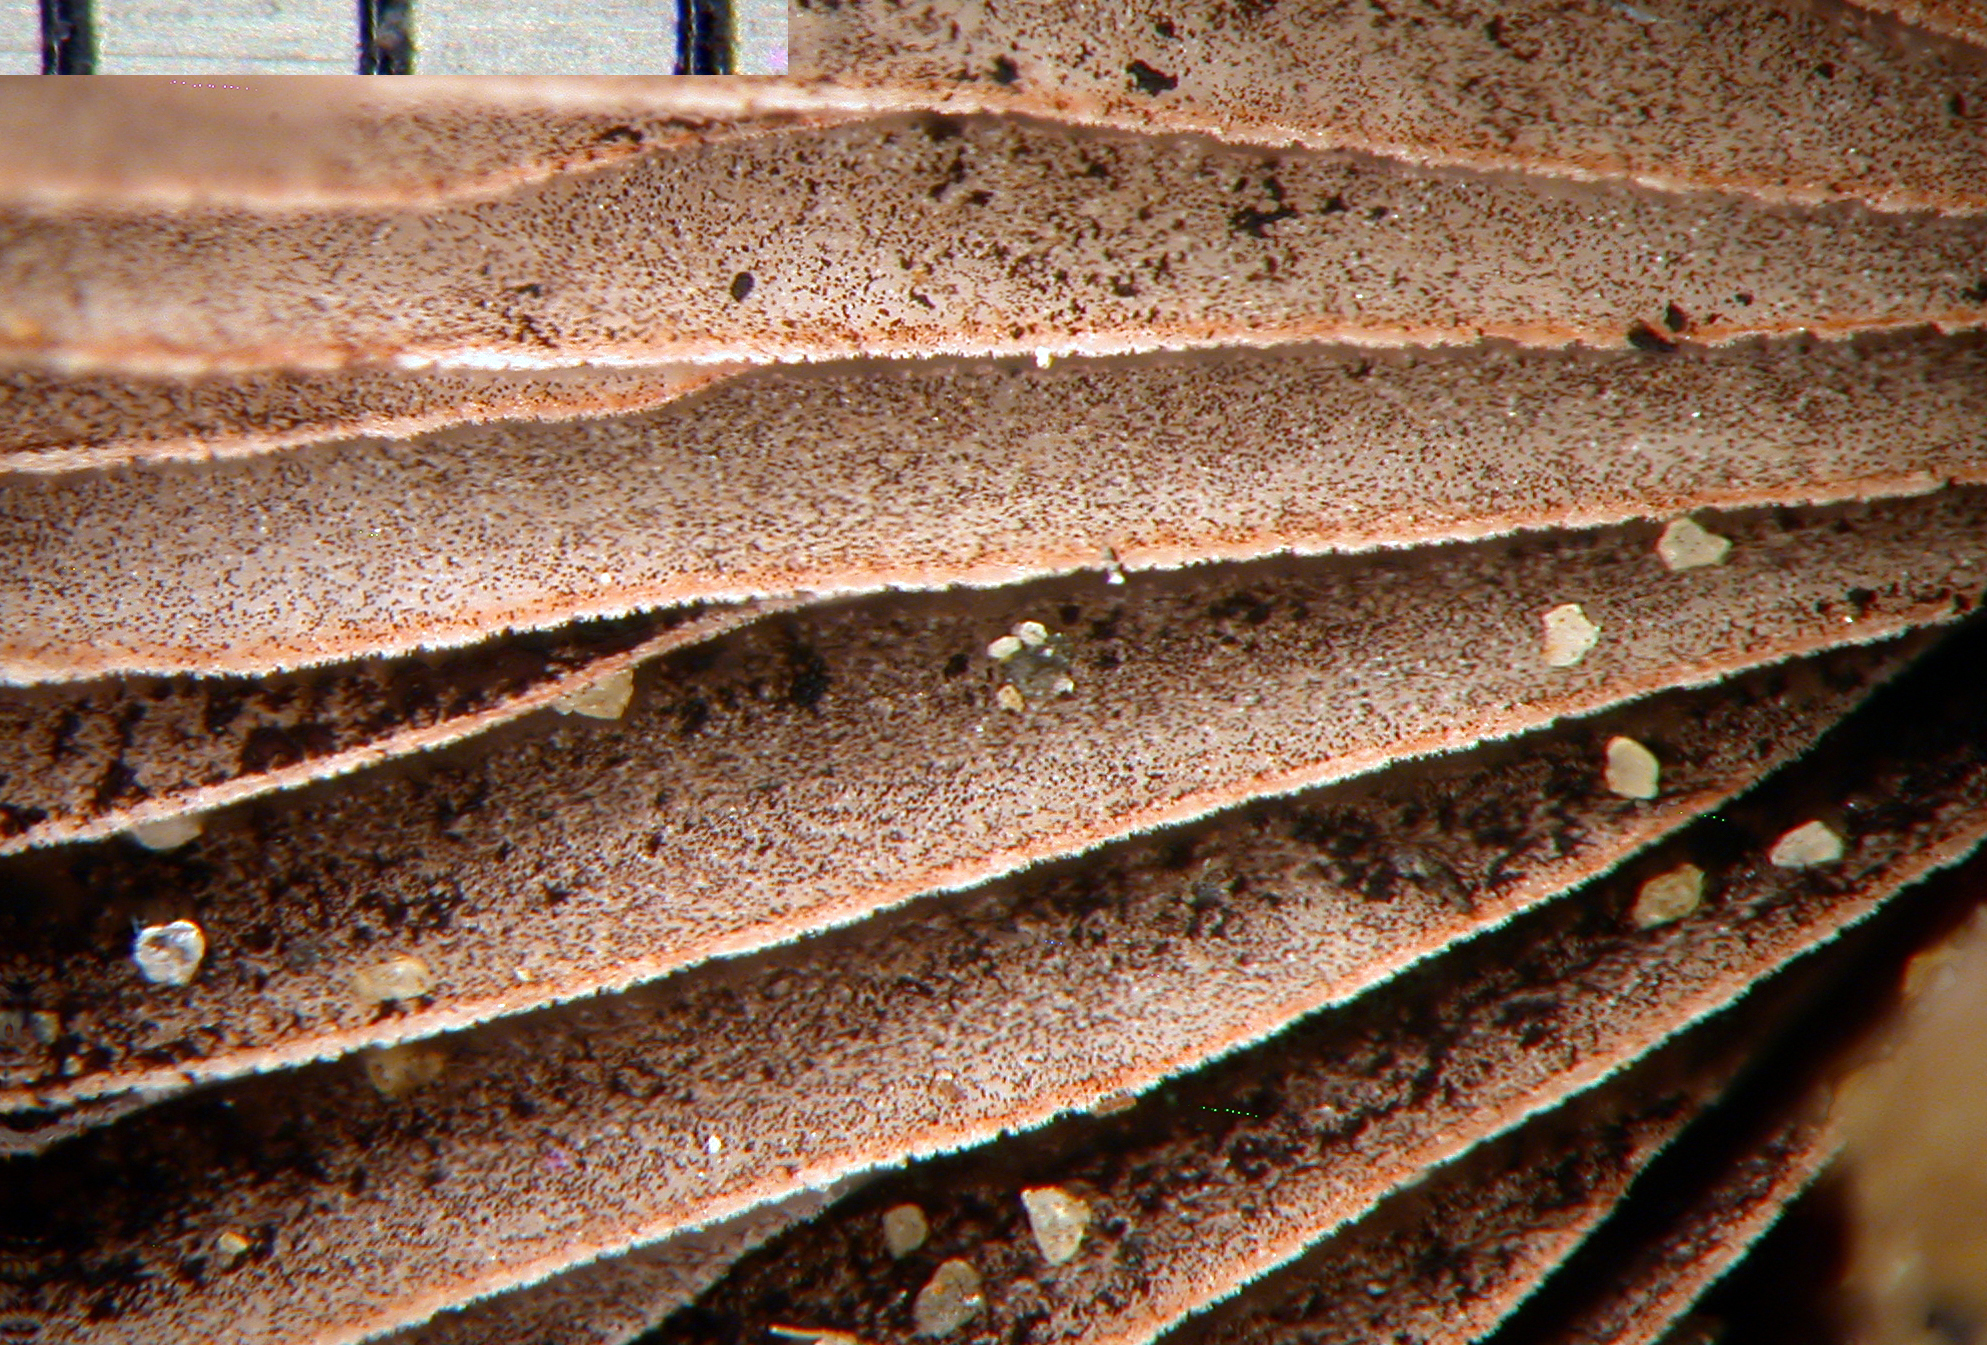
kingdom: Fungi
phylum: Basidiomycota
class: Agaricomycetes
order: Agaricales
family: Psathyrellaceae
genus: Psathyrella
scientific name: Psathyrella microrhiza
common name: Rootlet brittlestem
